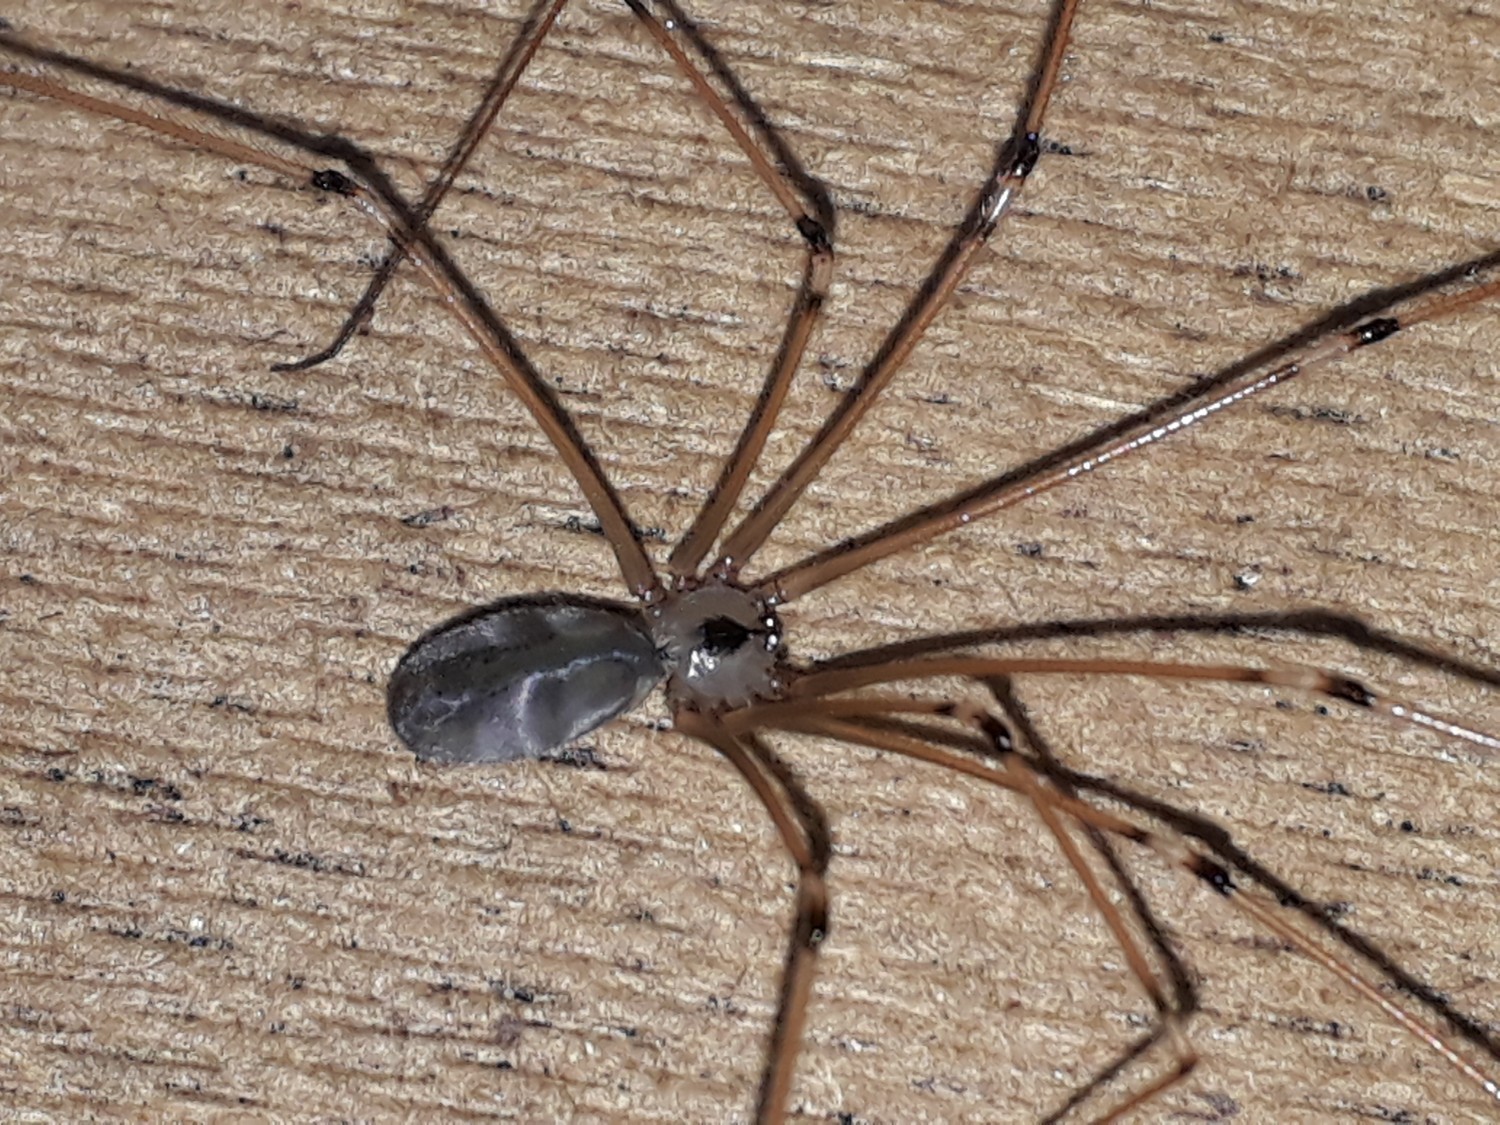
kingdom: Animalia
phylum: Arthropoda
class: Arachnida
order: Araneae
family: Pholcidae
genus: Pholcus
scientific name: Pholcus phalangioides
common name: Longbodied cellar spider
